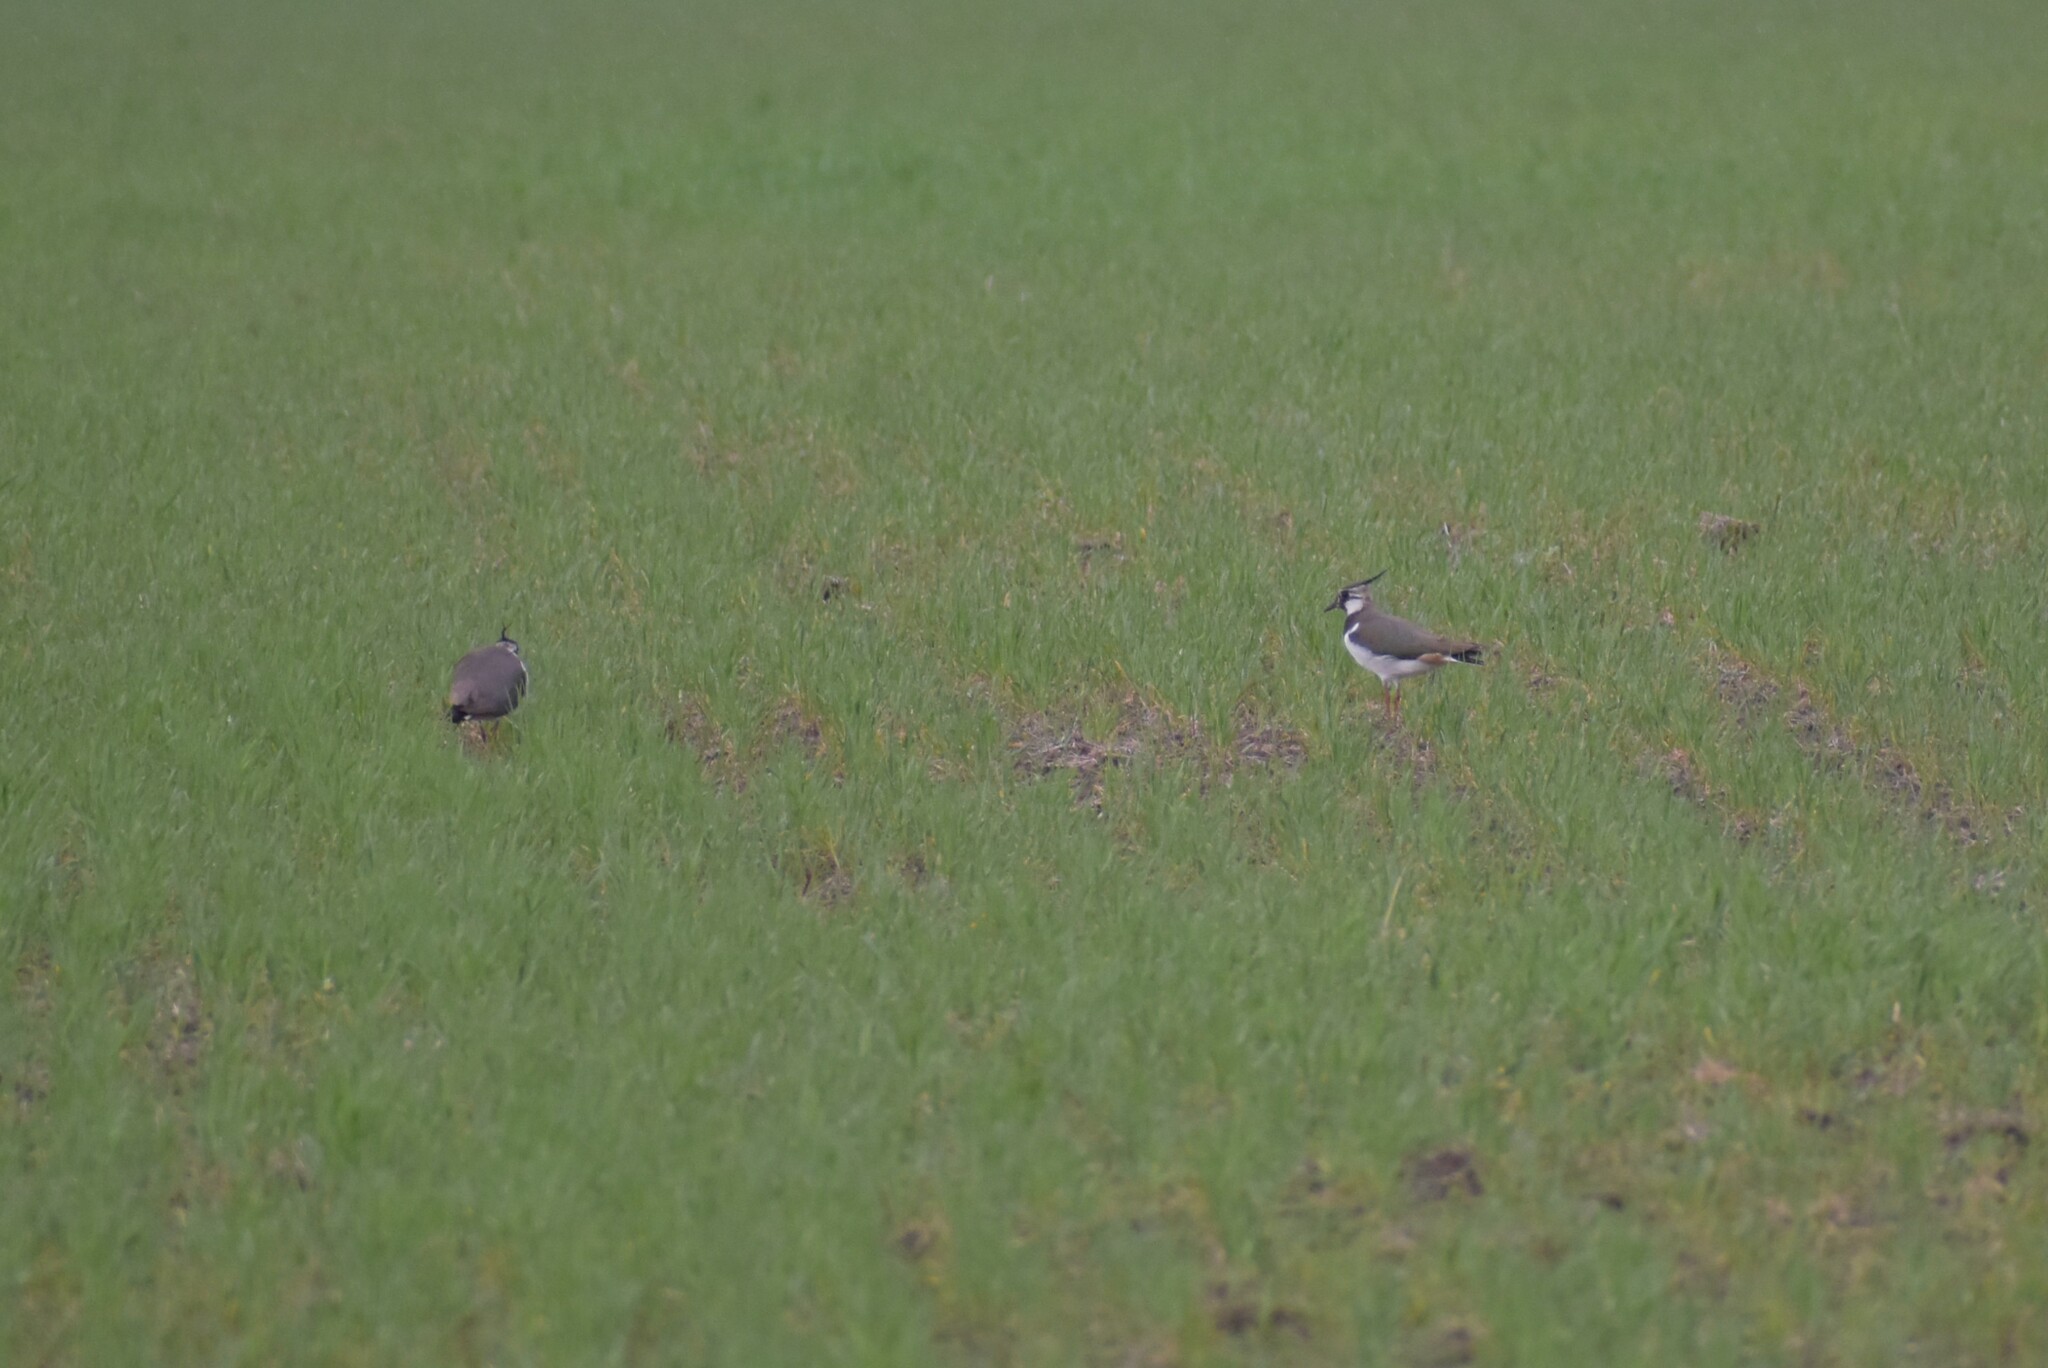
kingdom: Animalia
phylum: Chordata
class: Aves
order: Charadriiformes
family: Charadriidae
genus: Vanellus
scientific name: Vanellus vanellus
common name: Northern lapwing
